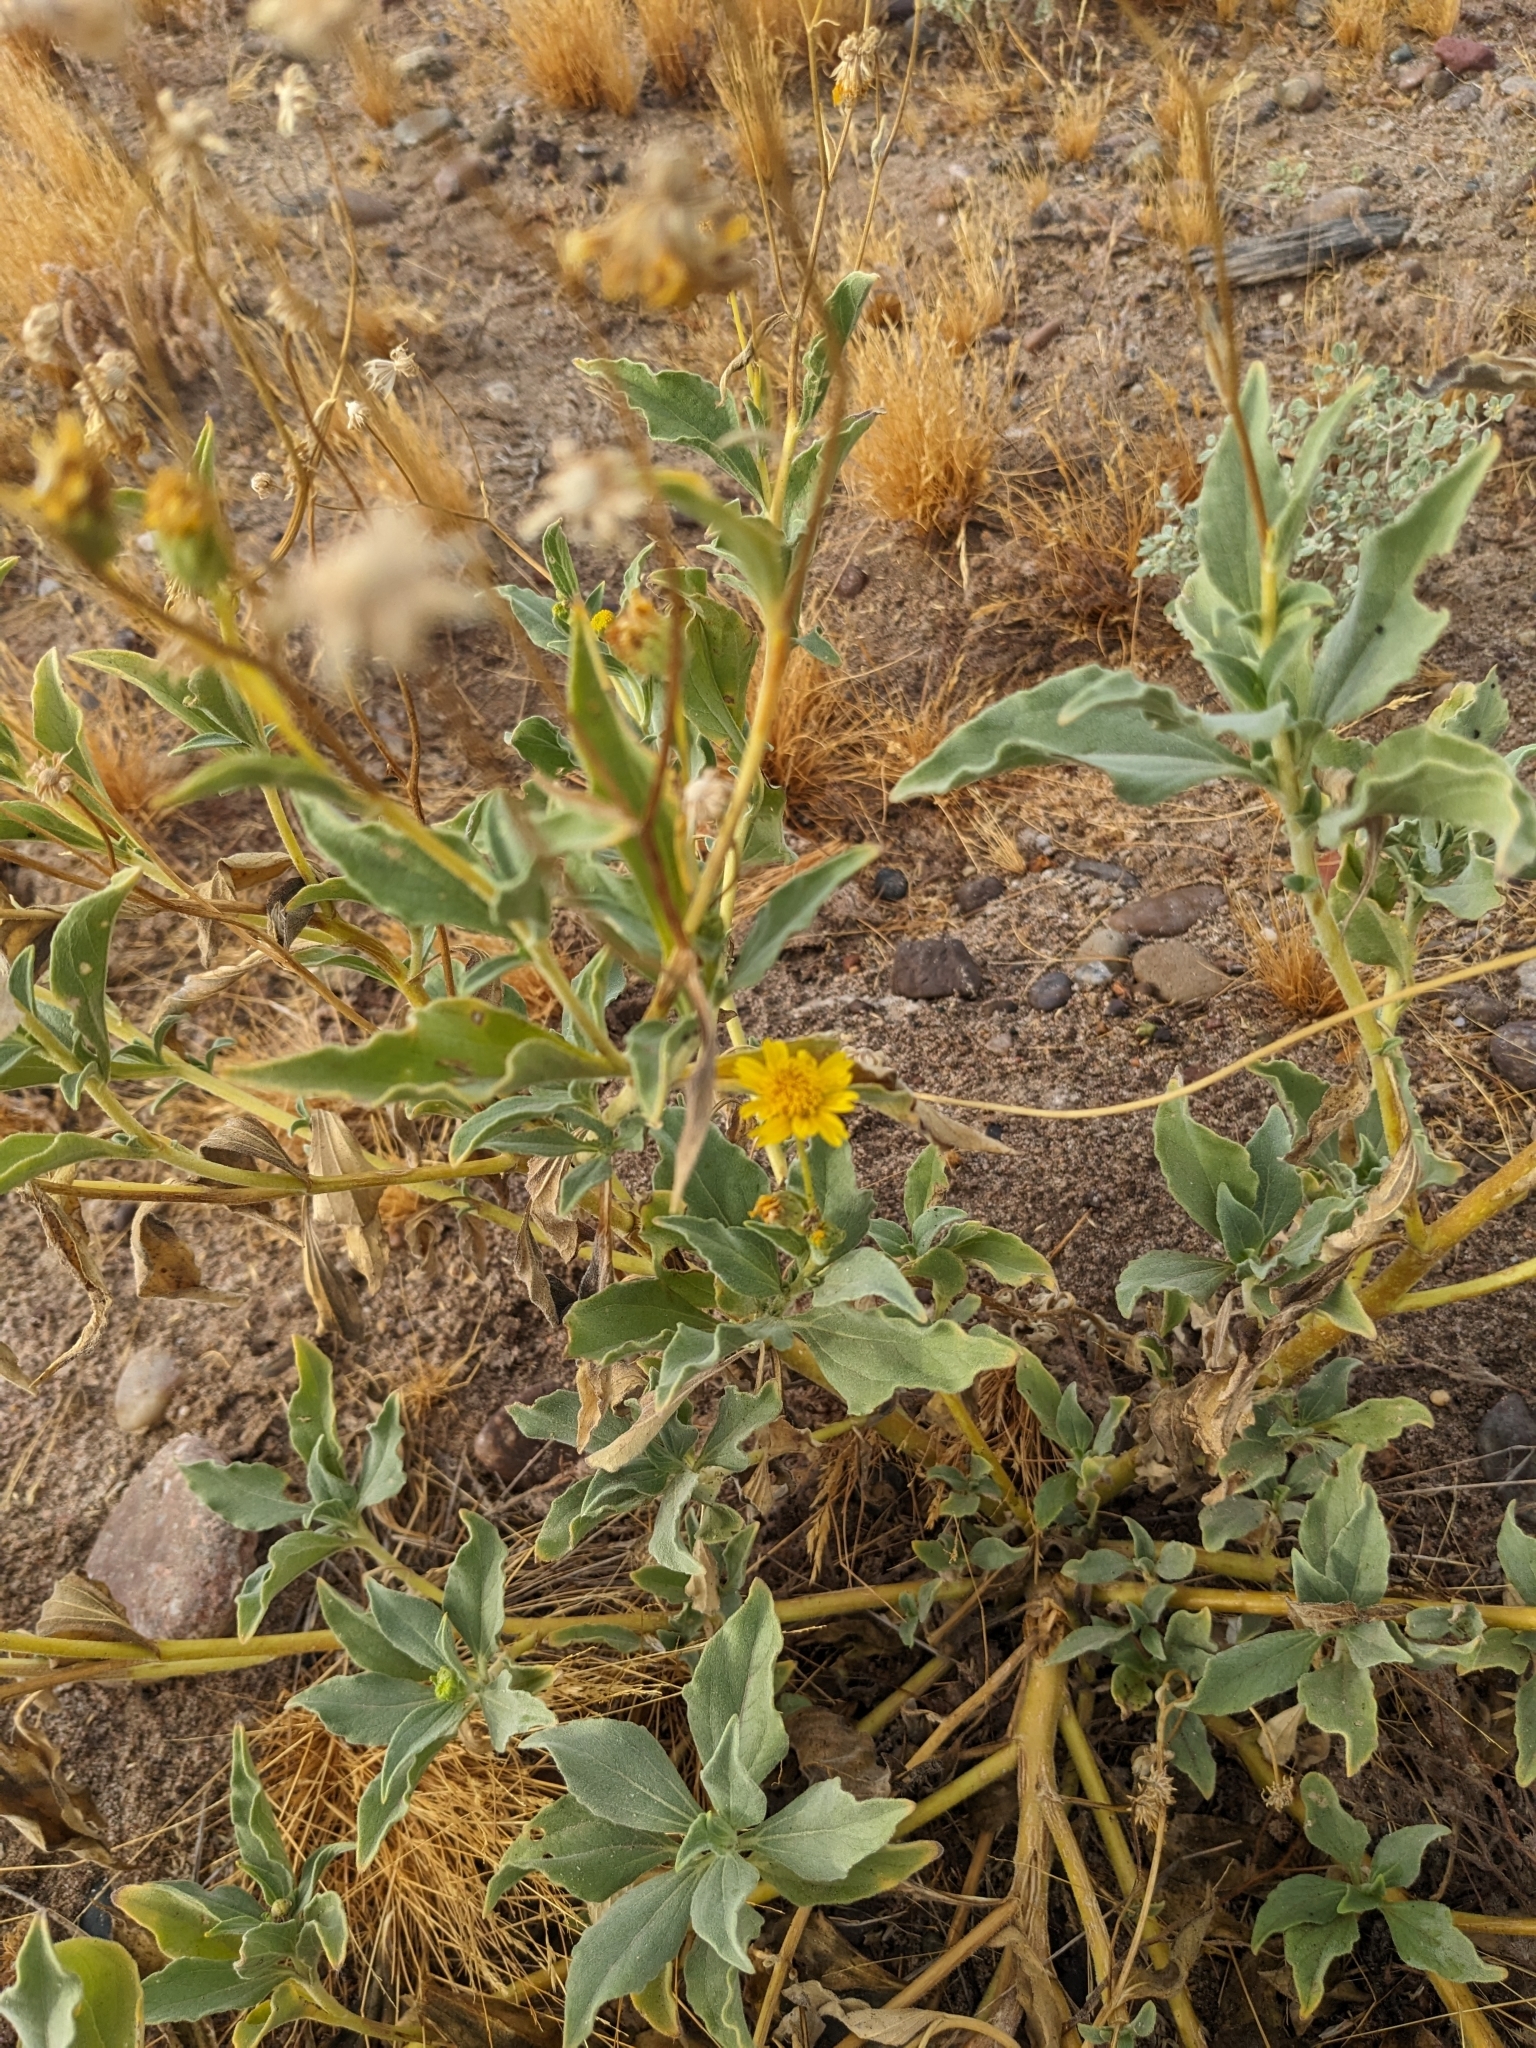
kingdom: Plantae
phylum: Tracheophyta
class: Magnoliopsida
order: Asterales
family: Asteraceae
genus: Encelia
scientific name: Encelia farinosa
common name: Brittlebush
